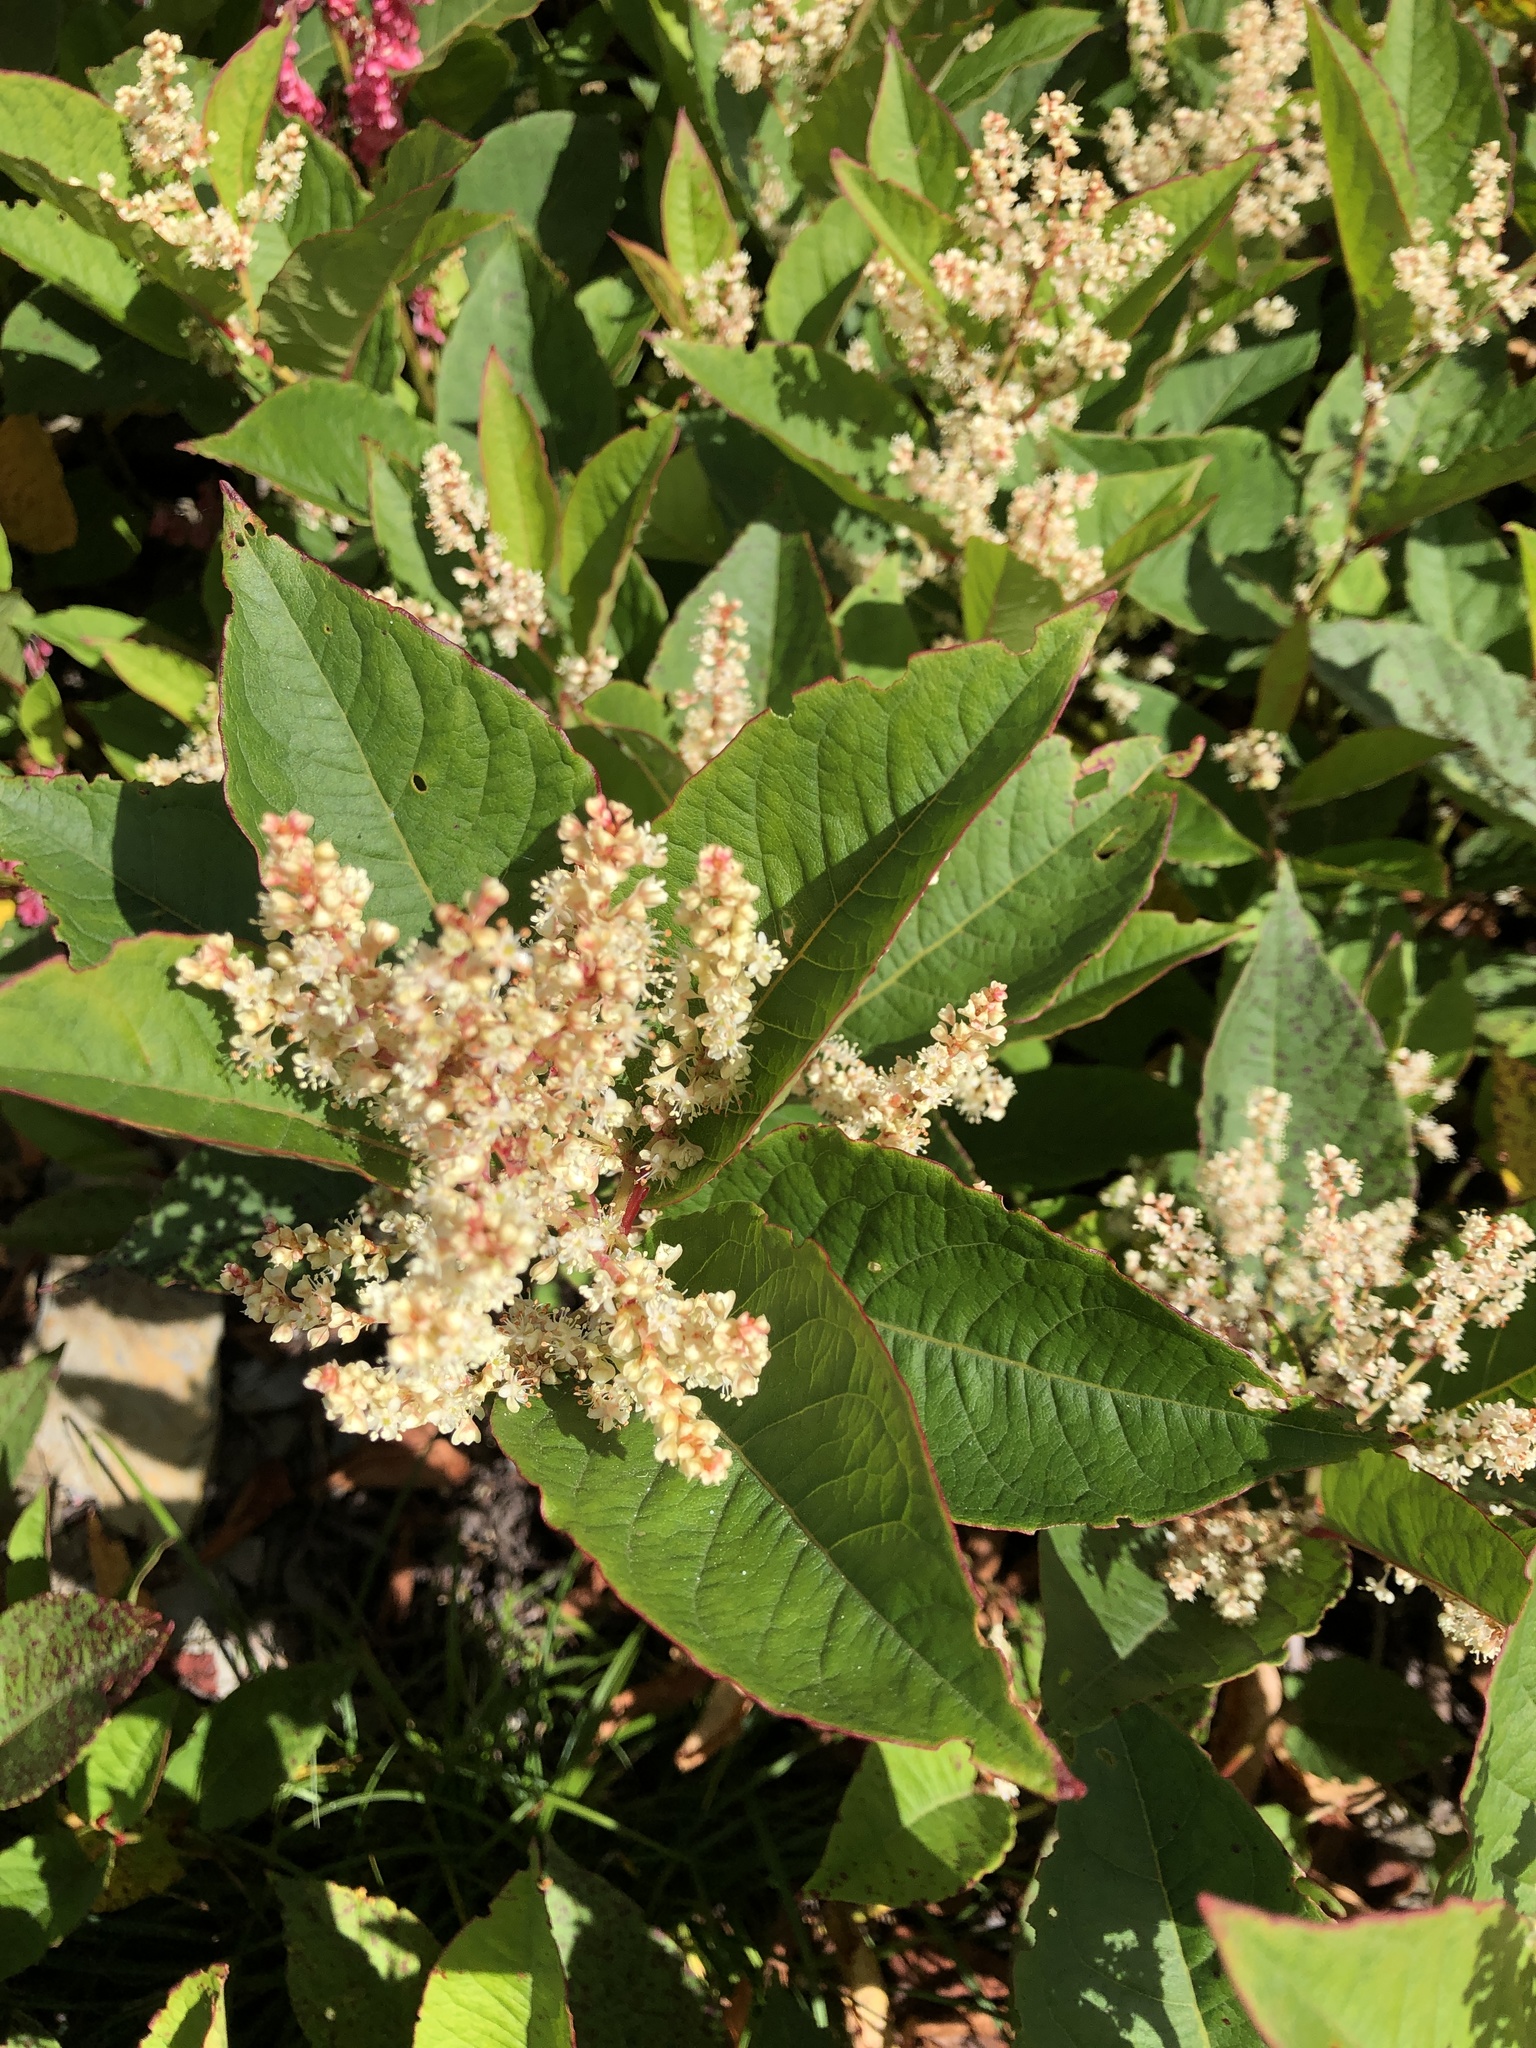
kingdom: Plantae
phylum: Tracheophyta
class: Magnoliopsida
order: Caryophyllales
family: Polygonaceae
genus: Reynoutria
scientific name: Reynoutria japonica
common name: Japanese knotweed
